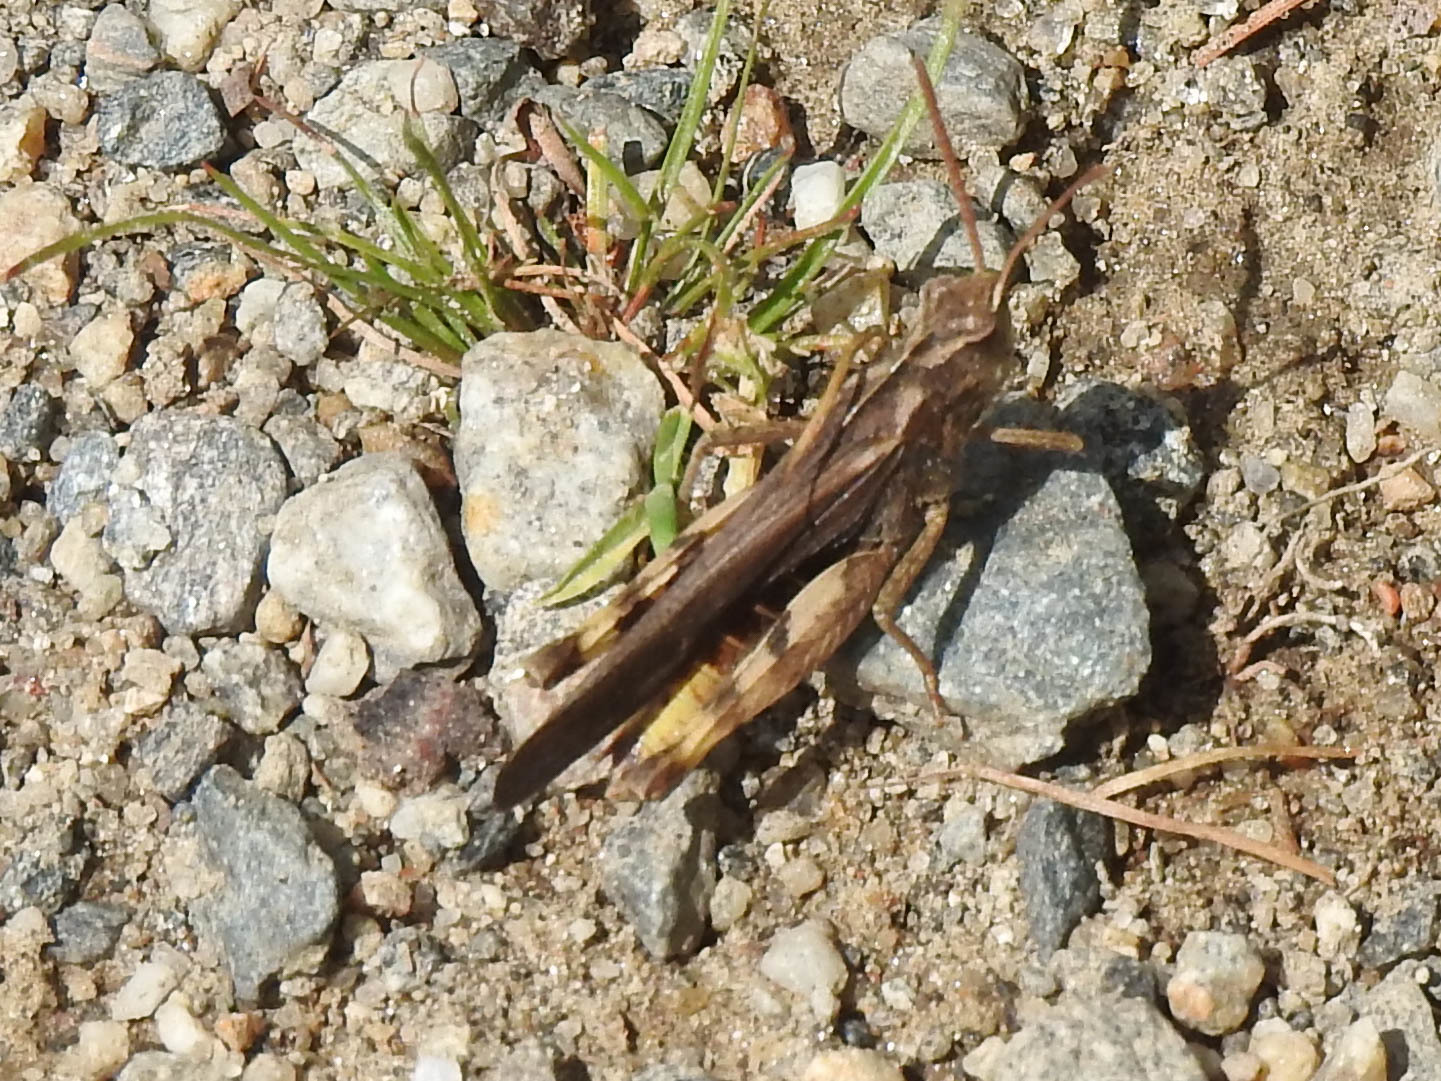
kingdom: Animalia
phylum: Arthropoda
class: Insecta
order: Orthoptera
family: Acrididae
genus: Chortophaga
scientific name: Chortophaga viridifasciata
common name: Green-striped grasshopper
